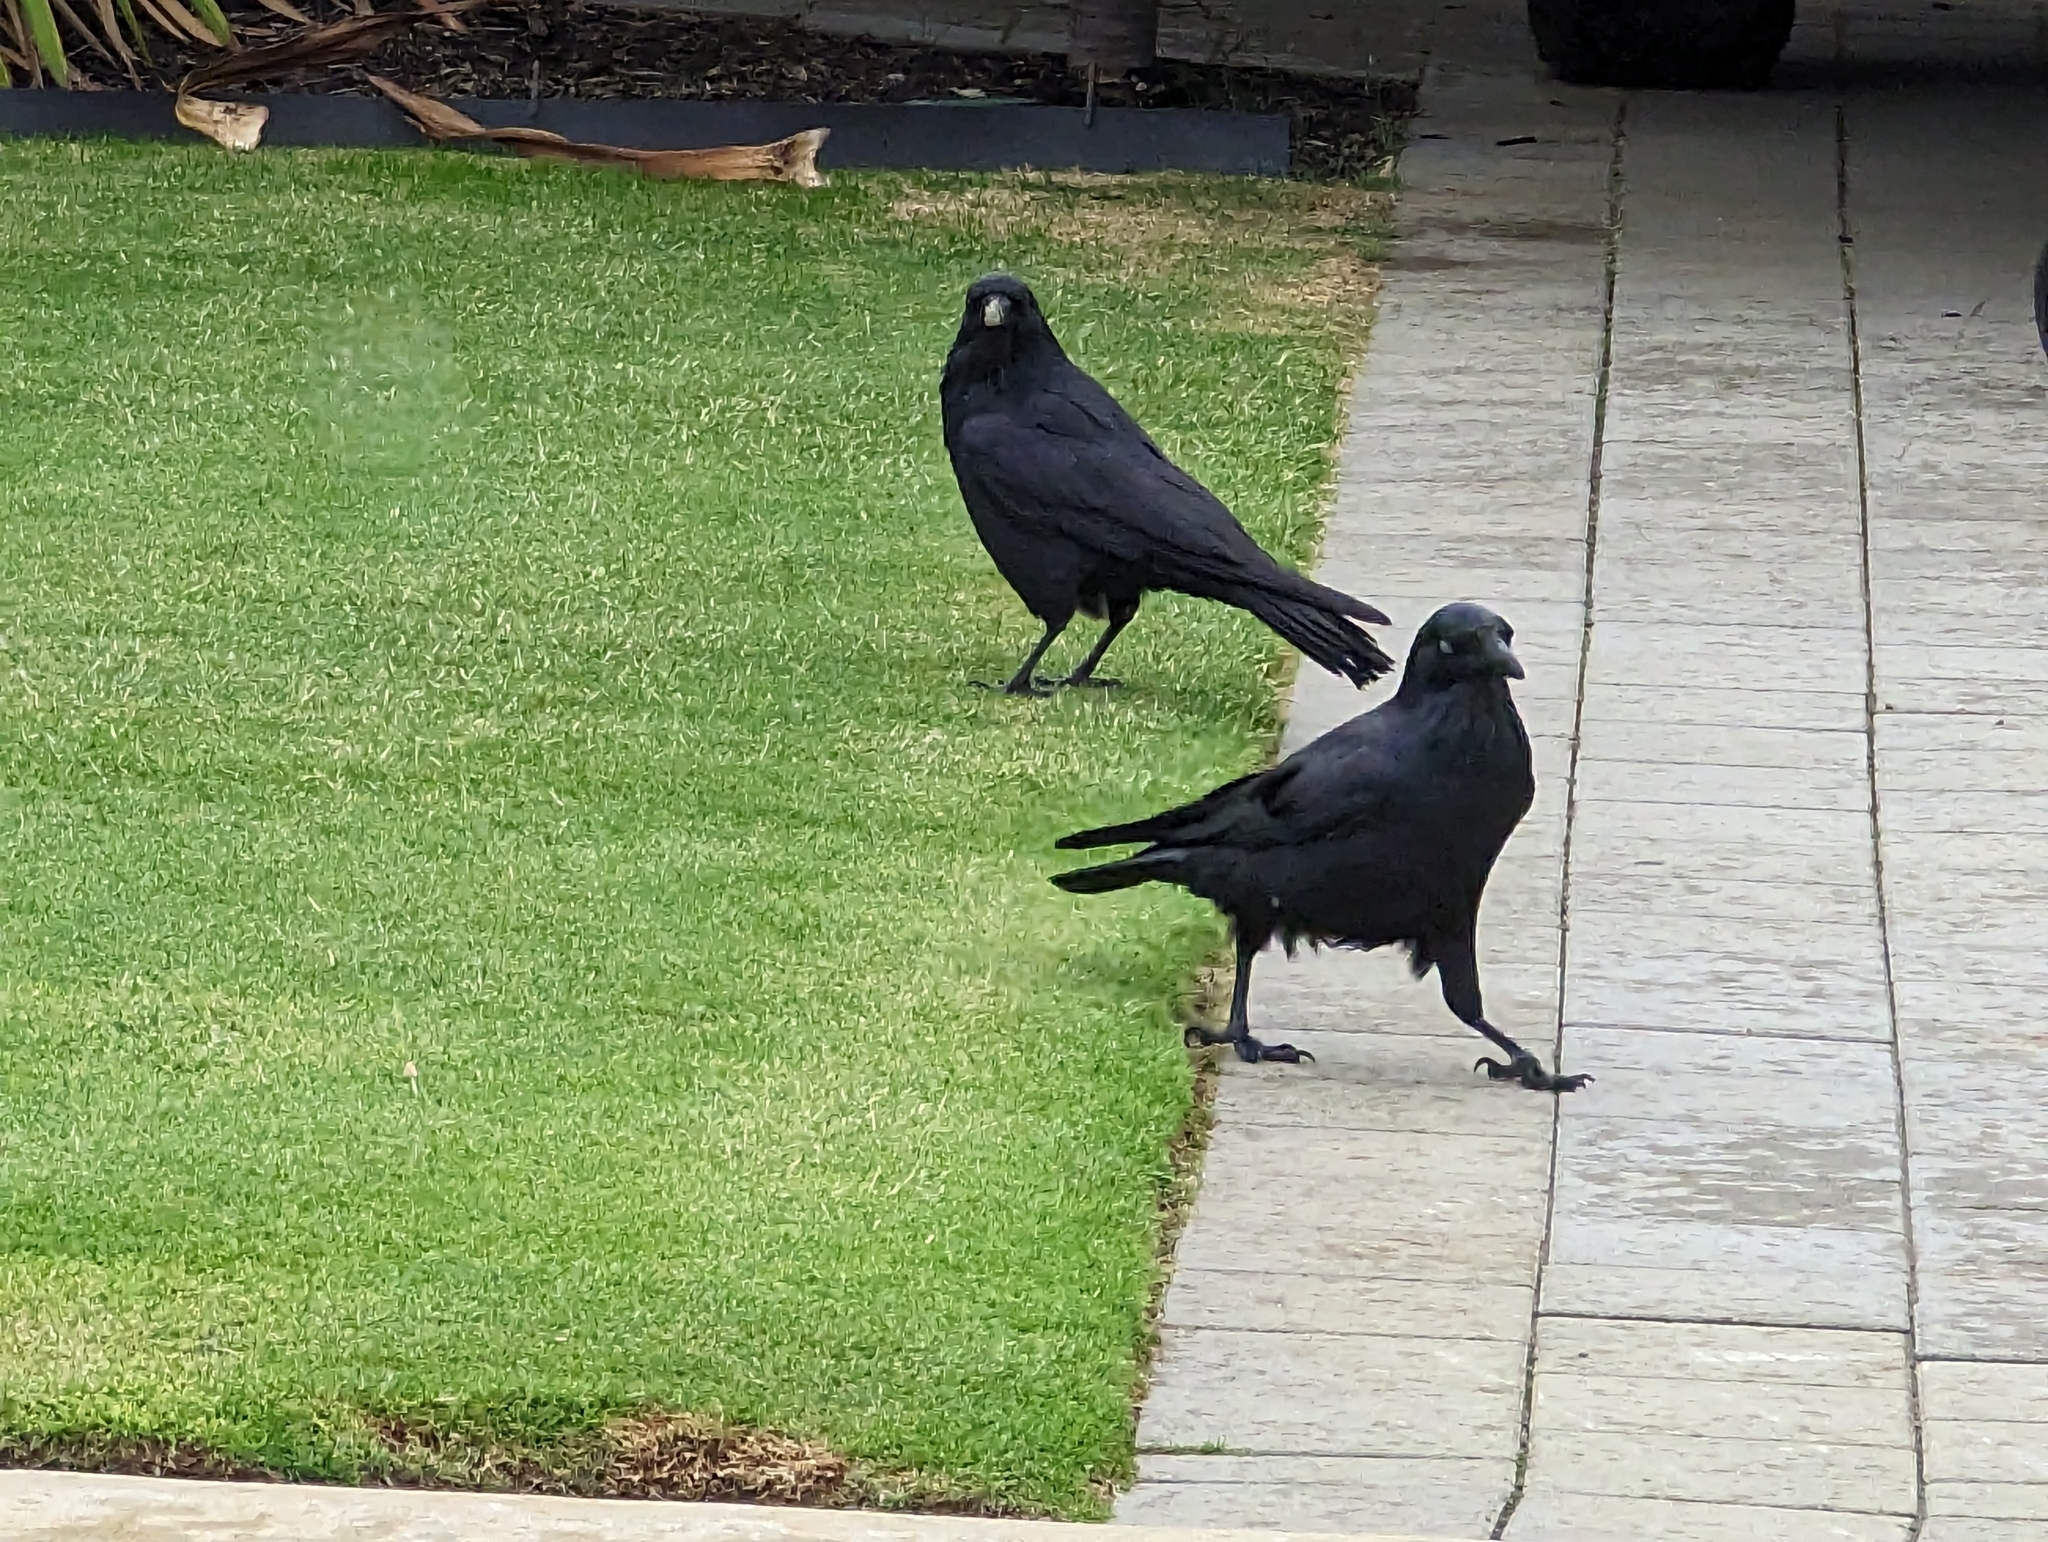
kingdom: Animalia
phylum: Chordata
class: Aves
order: Passeriformes
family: Corvidae
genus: Corvus
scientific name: Corvus coronoides
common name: Australian raven
